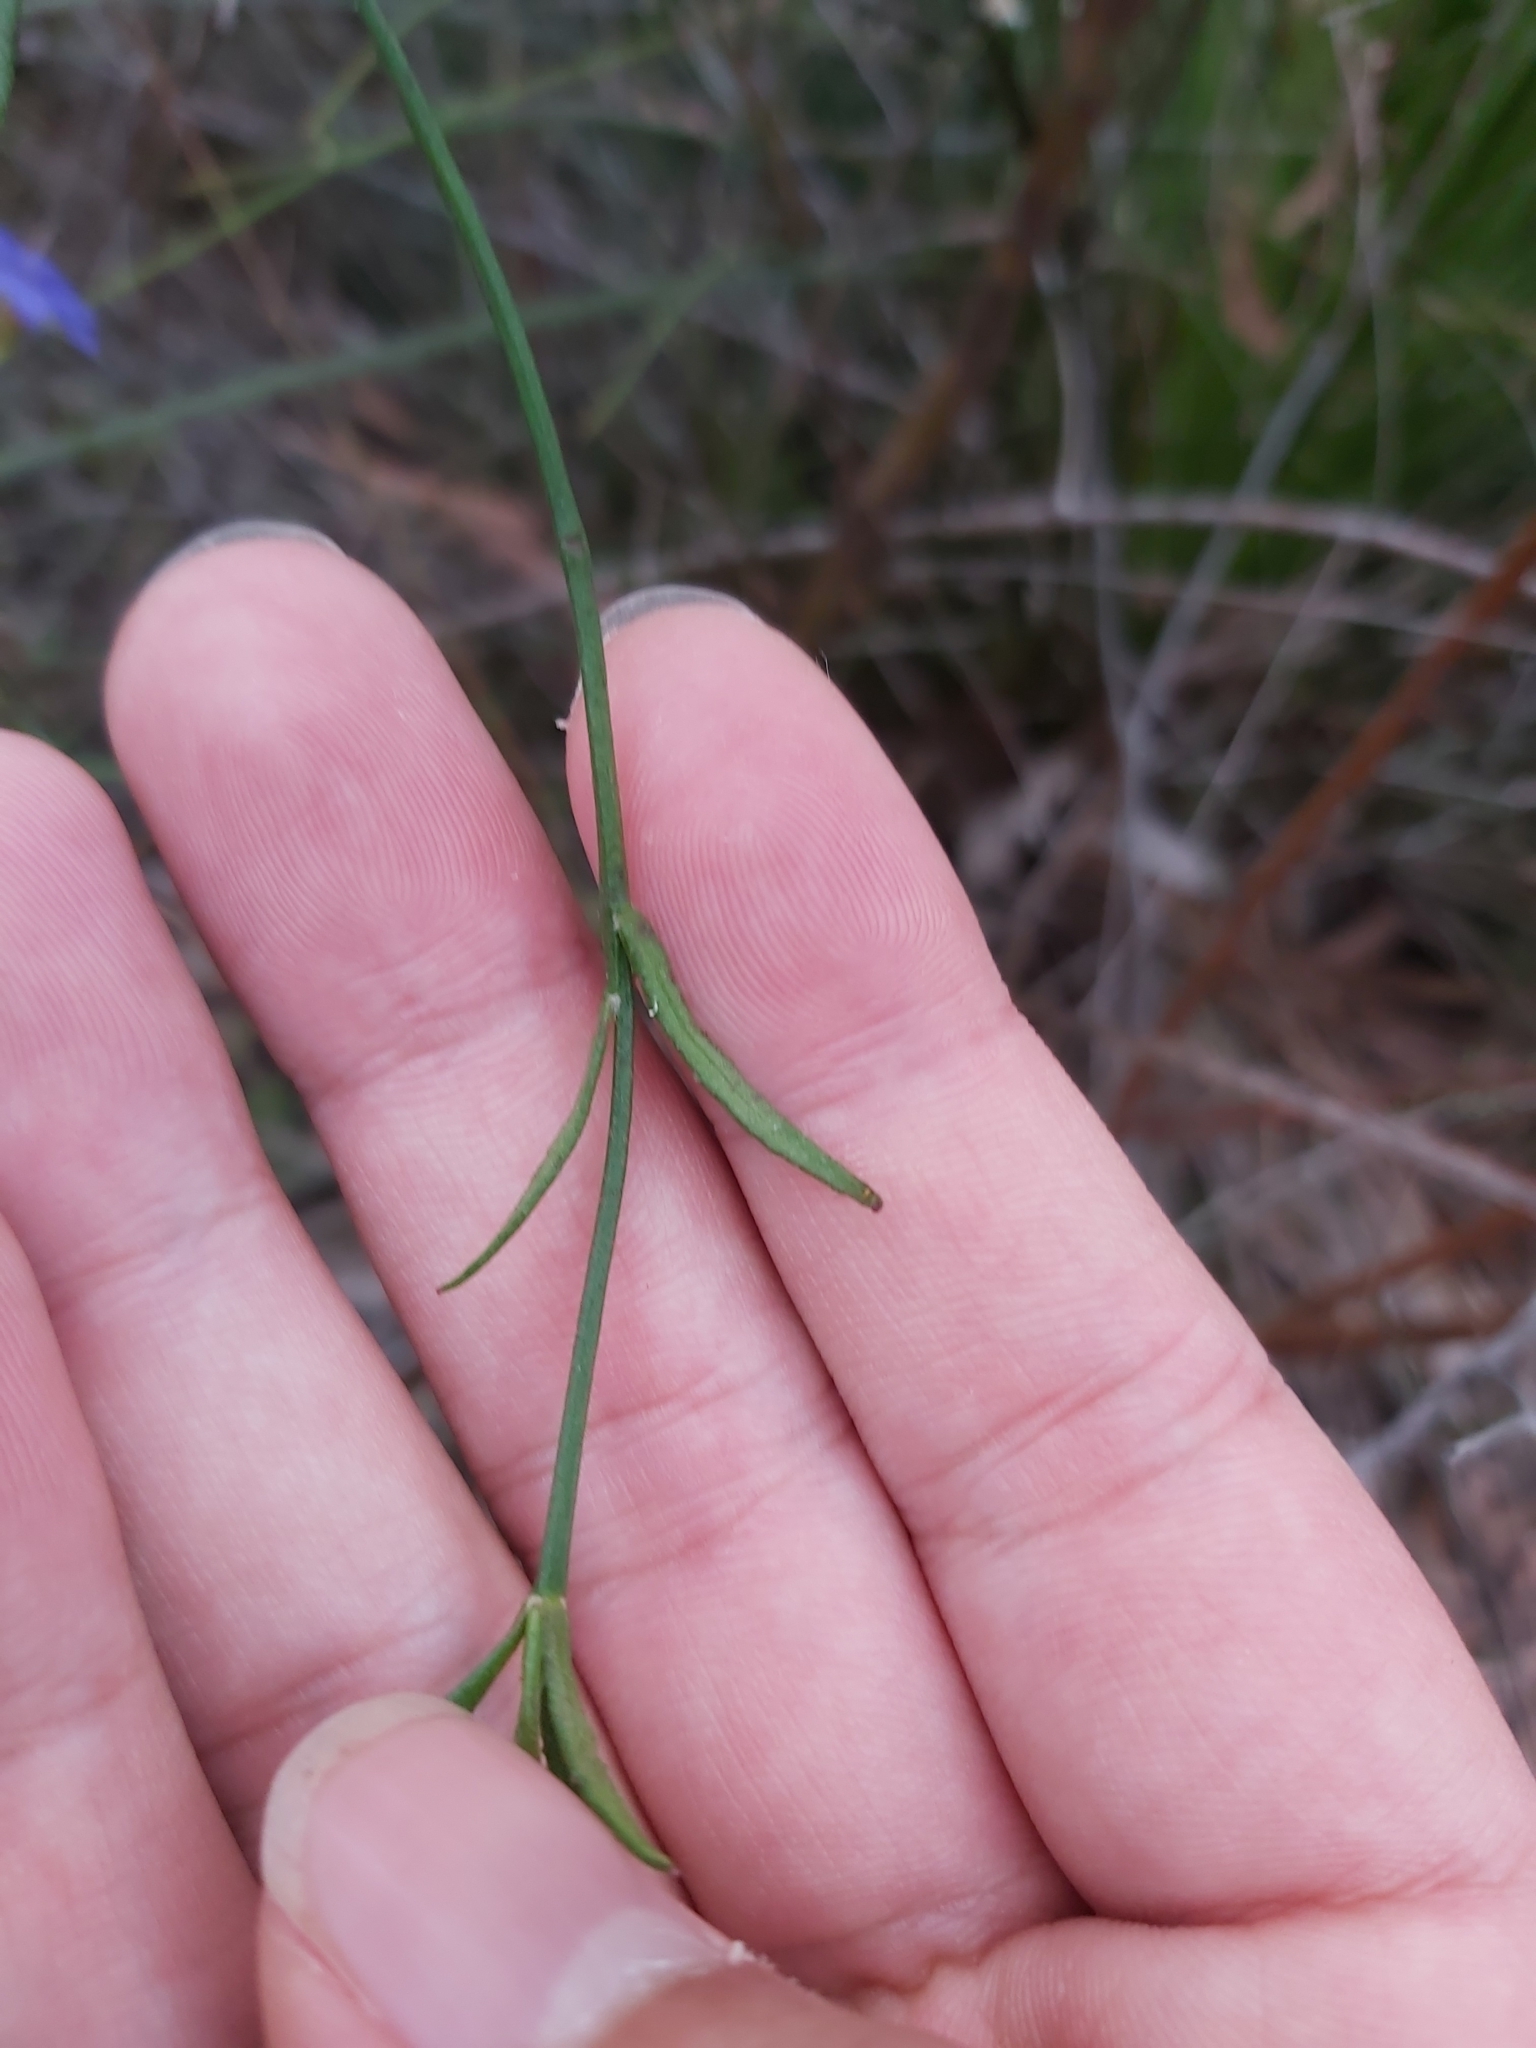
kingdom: Plantae
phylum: Tracheophyta
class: Magnoliopsida
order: Asterales
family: Goodeniaceae
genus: Dampiera
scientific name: Dampiera stricta
